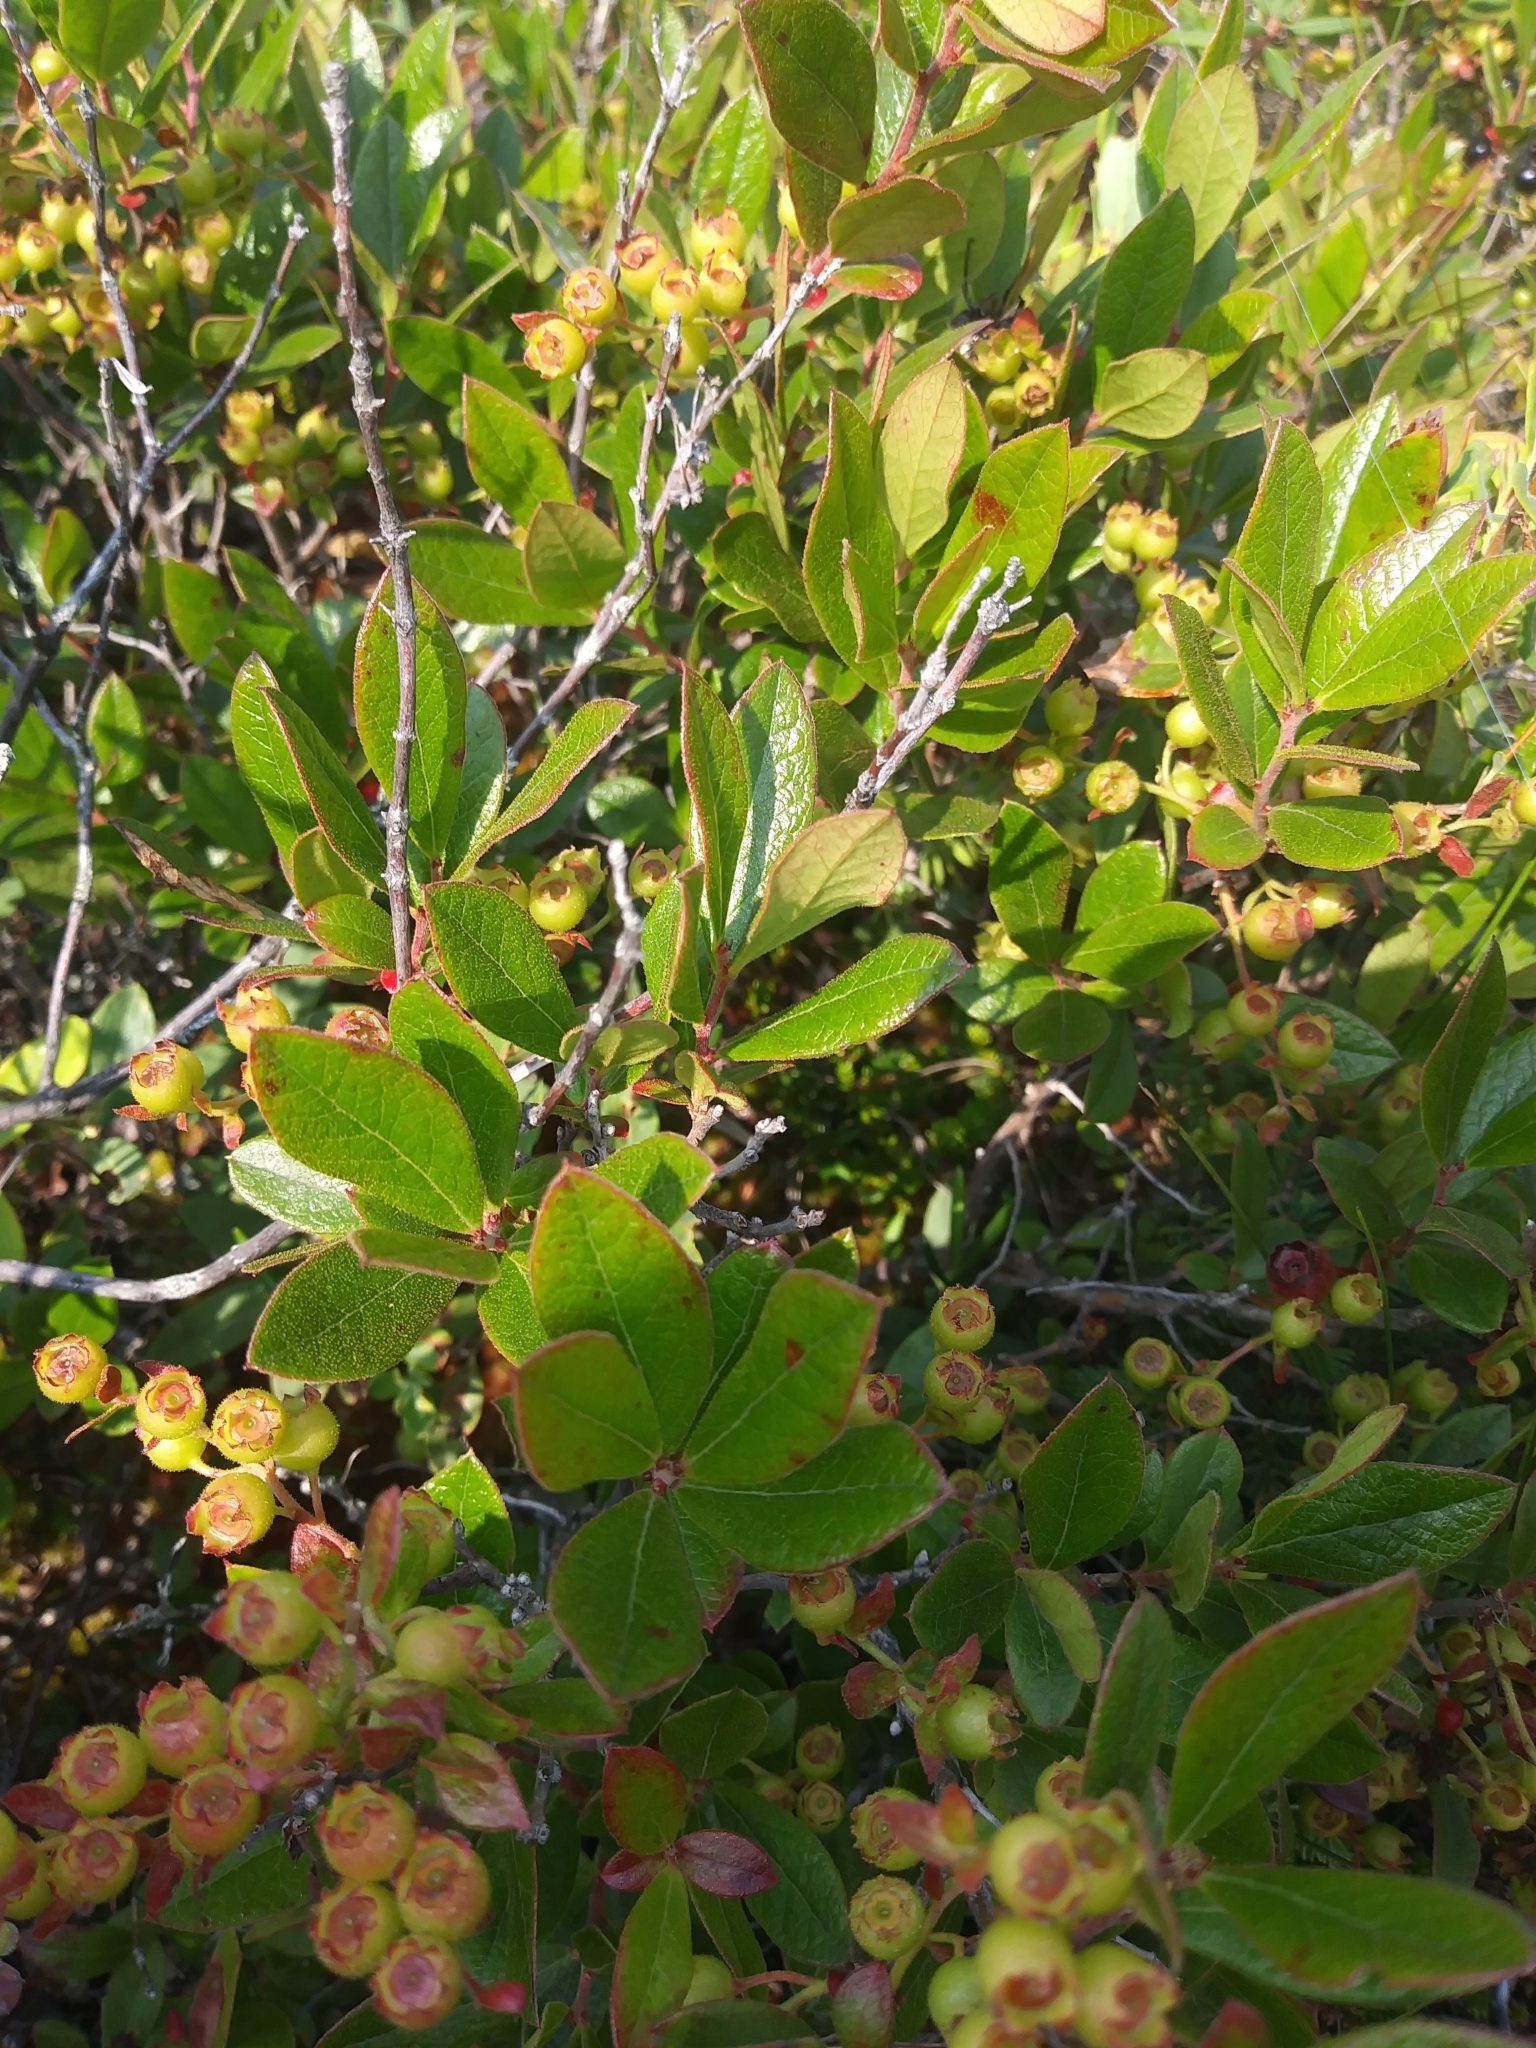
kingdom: Plantae
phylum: Tracheophyta
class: Magnoliopsida
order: Ericales
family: Ericaceae
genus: Gaylussacia
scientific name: Gaylussacia bigeloviana
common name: Bog huckleberry
